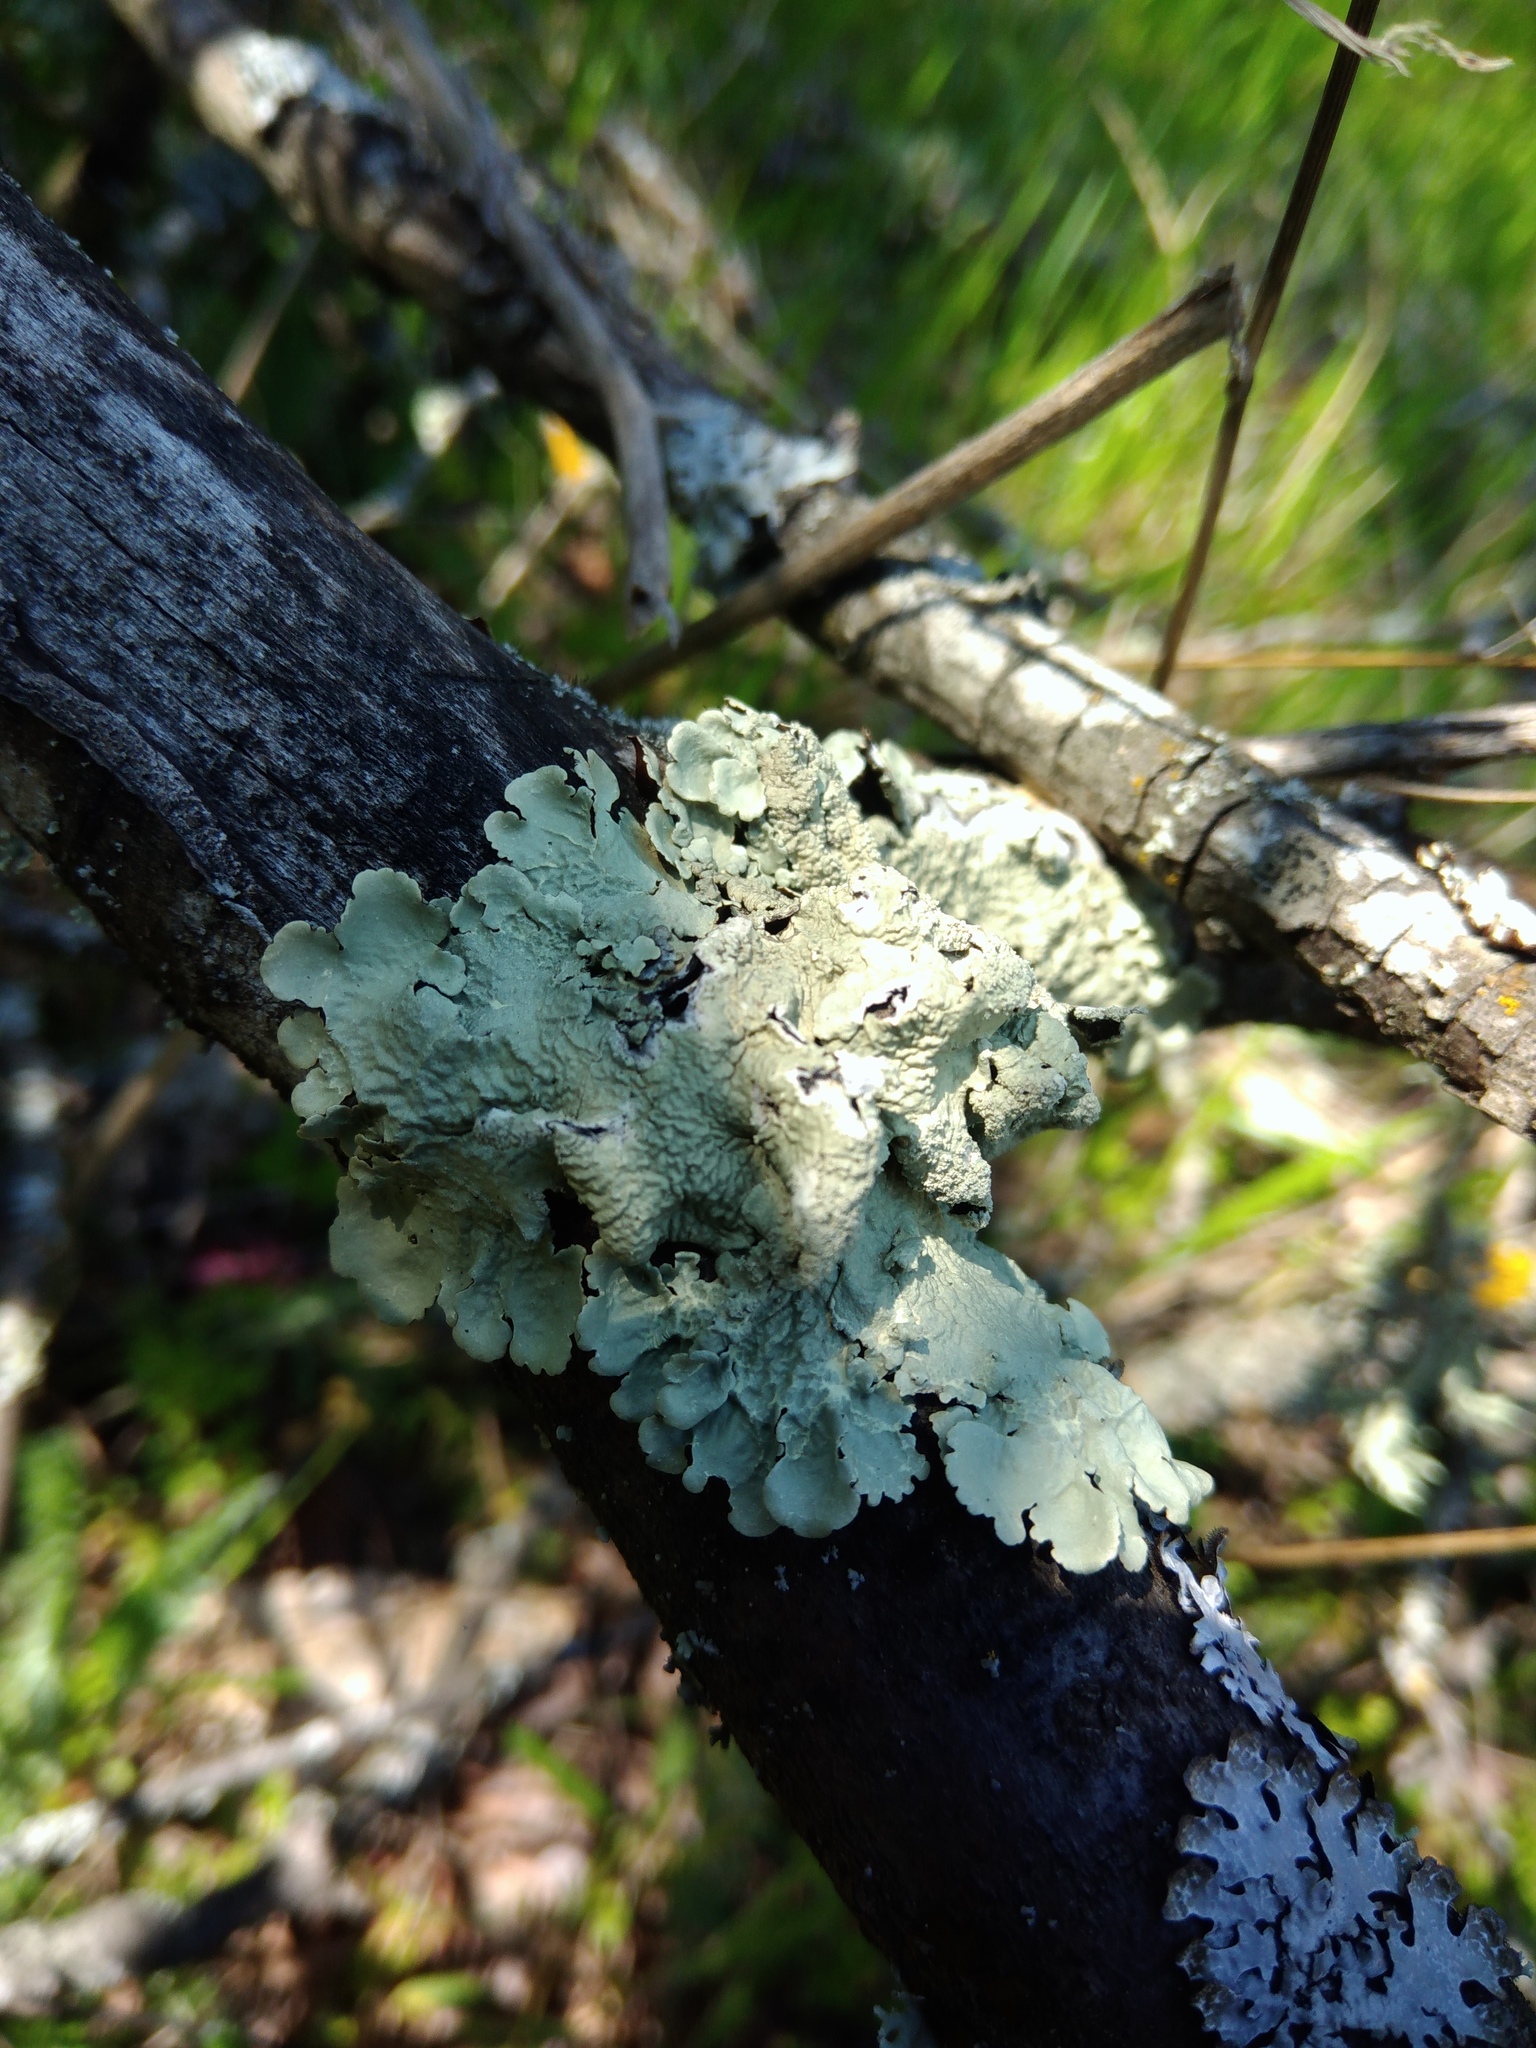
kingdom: Fungi
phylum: Ascomycota
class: Lecanoromycetes
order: Lecanorales
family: Parmeliaceae
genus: Flavoparmelia
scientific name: Flavoparmelia caperata
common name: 40-mile per hour lichen
